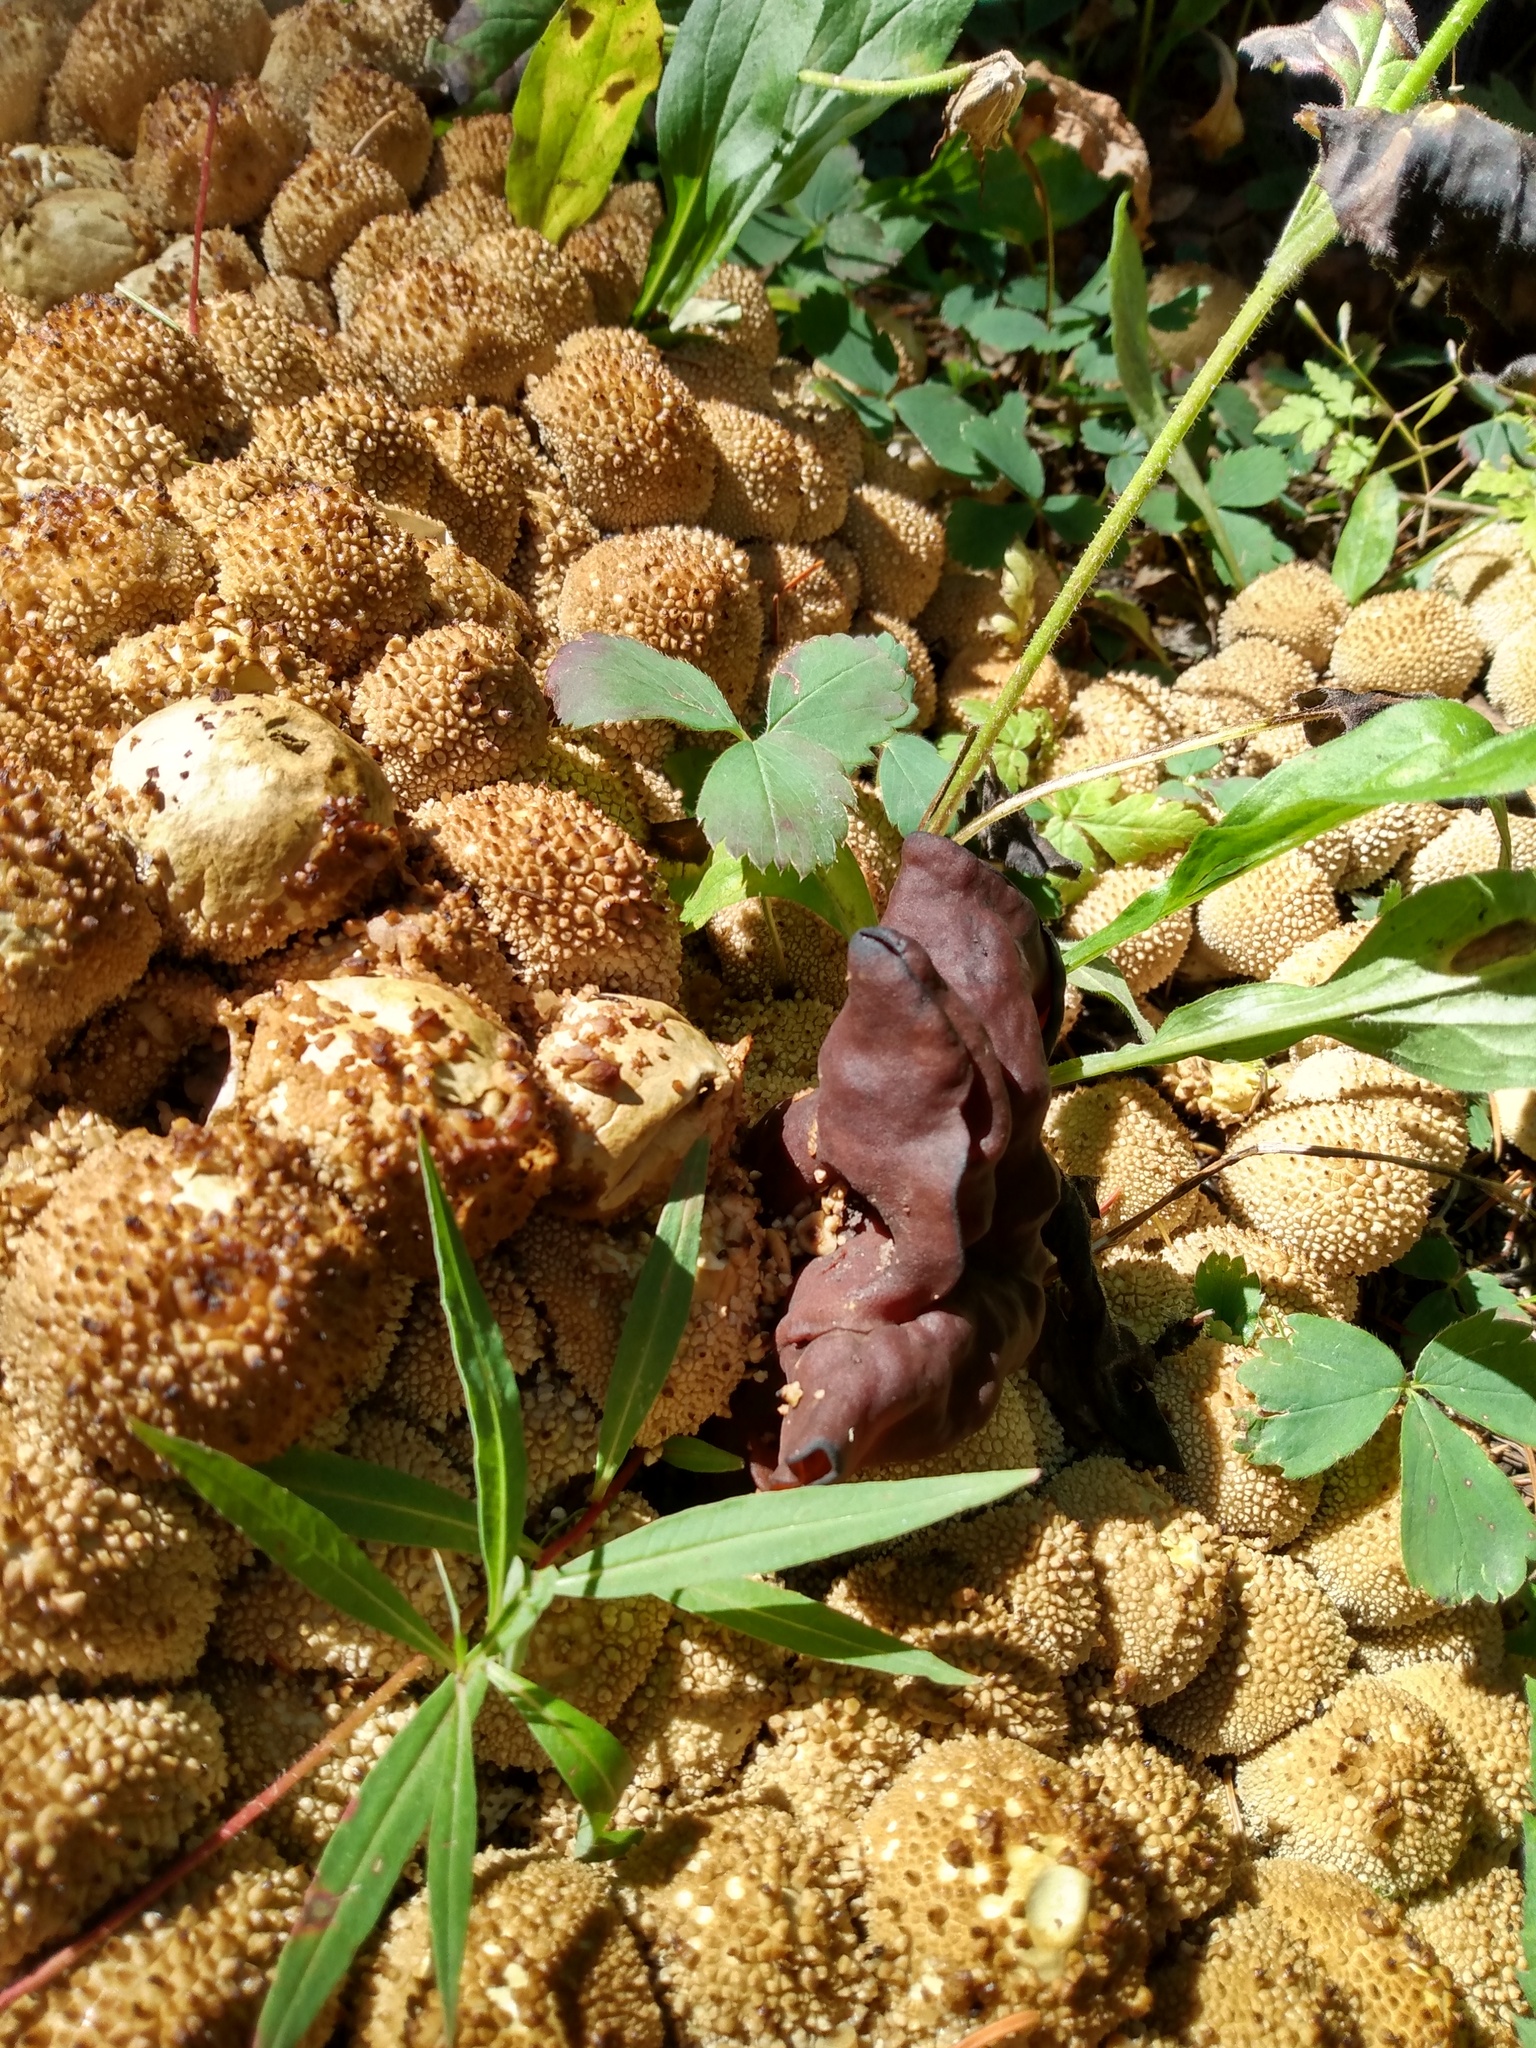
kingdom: Fungi
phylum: Basidiomycota
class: Agaricomycetes
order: Agaricales
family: Strophariaceae
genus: Pholiota
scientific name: Pholiota squarrosa
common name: Shaggy pholiota
